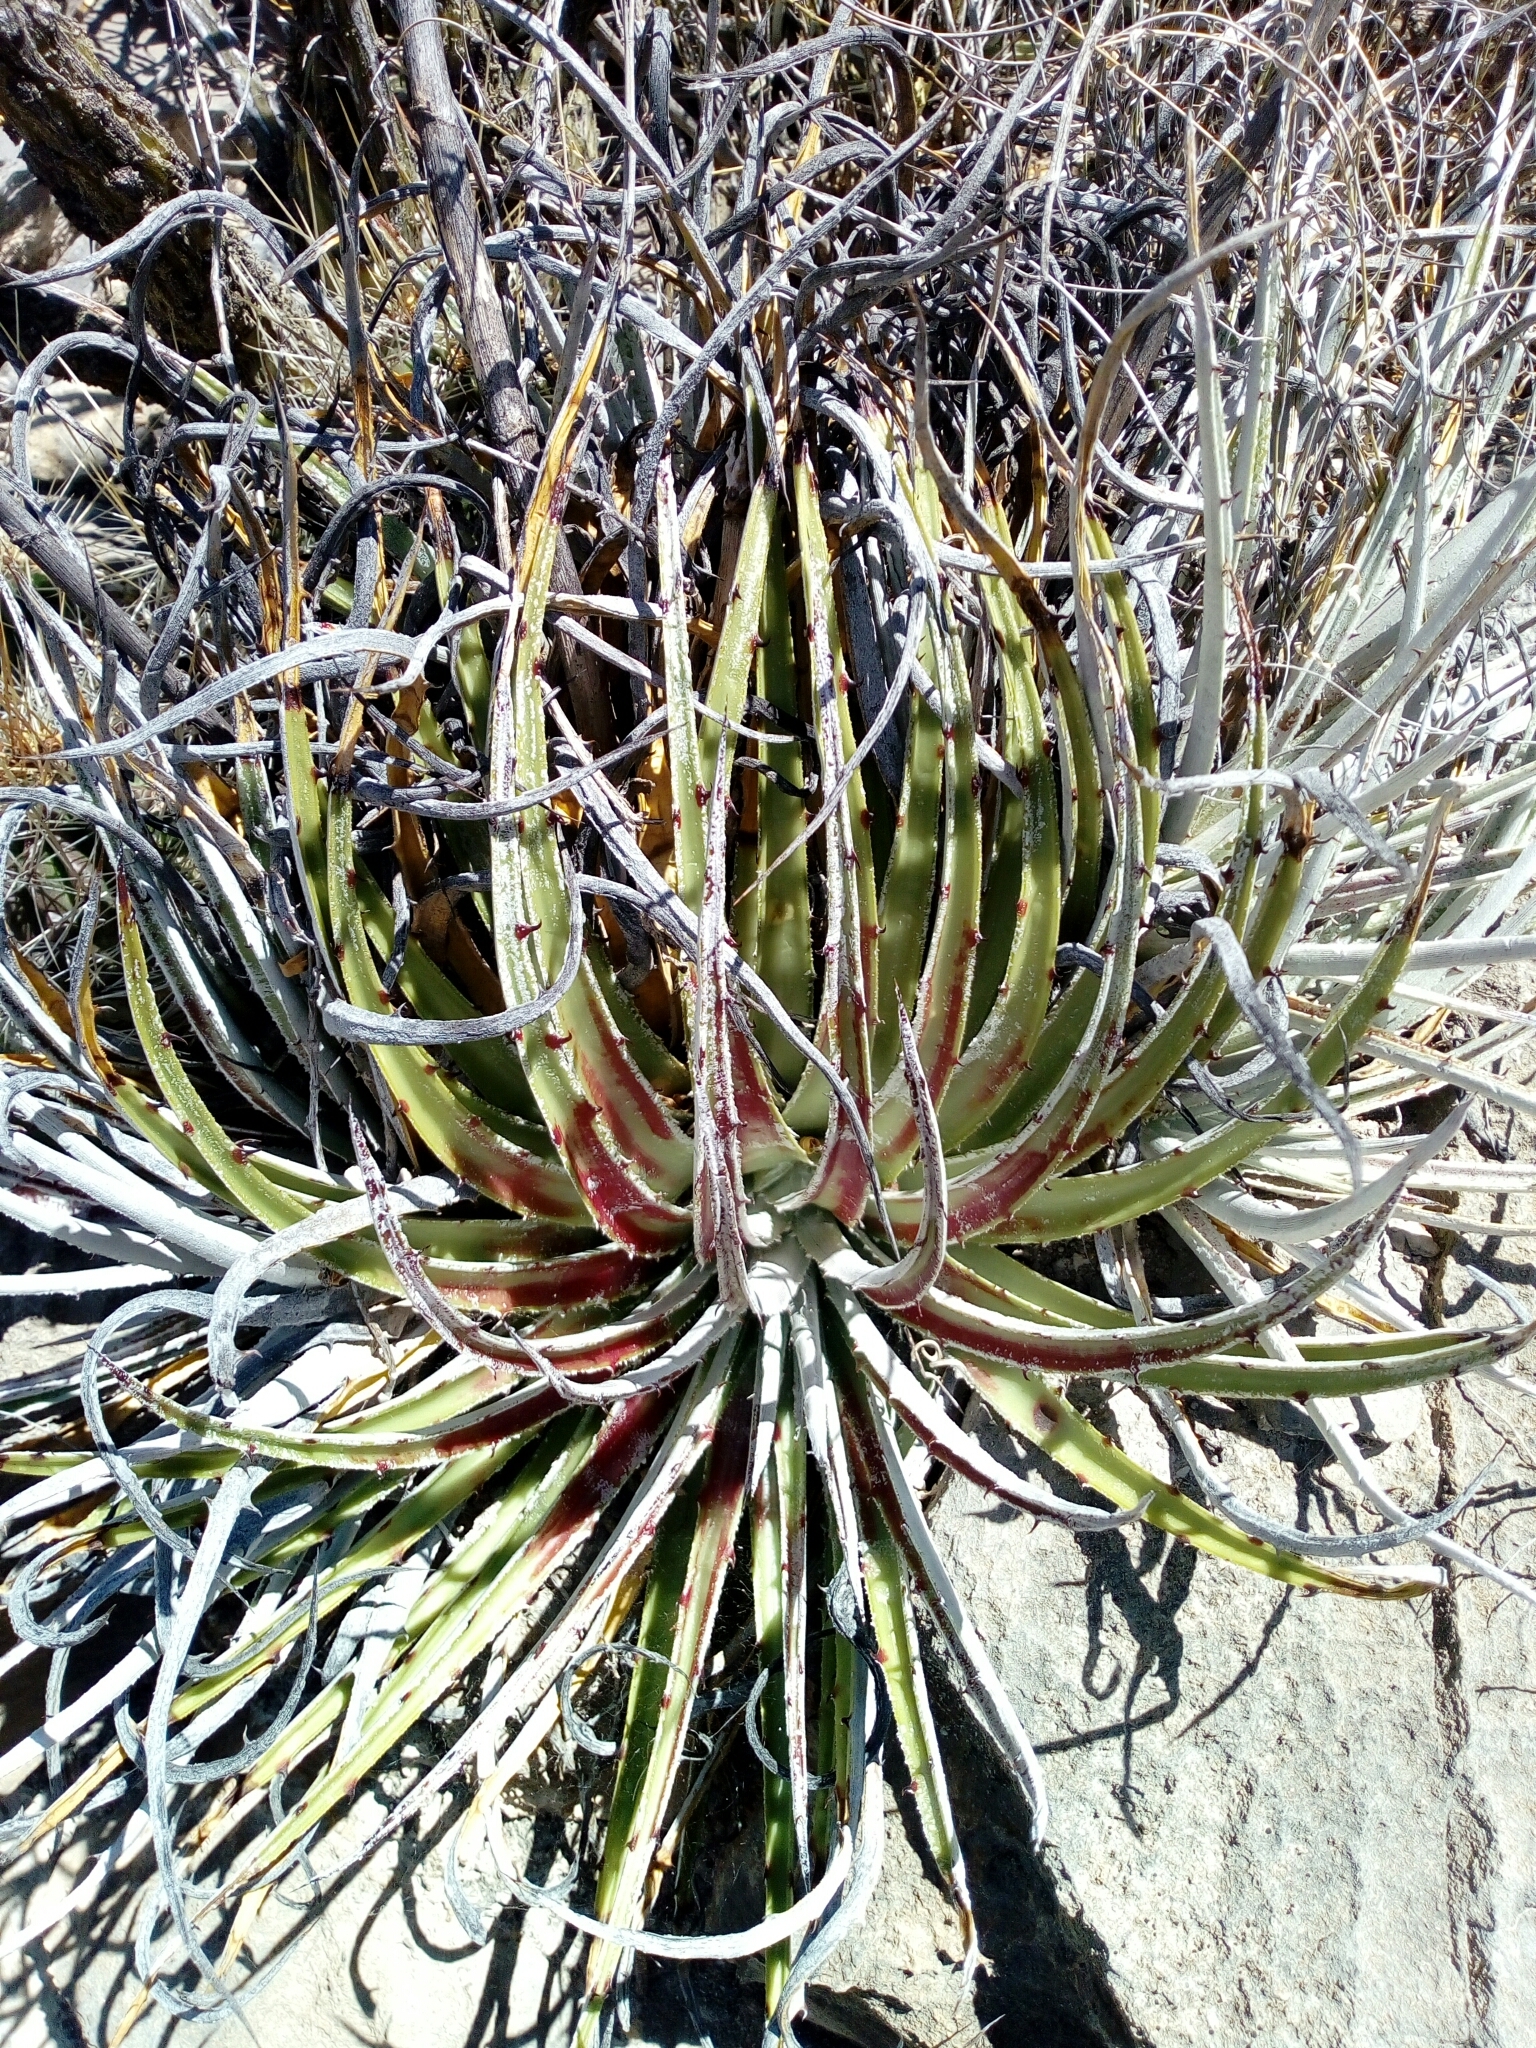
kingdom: Plantae
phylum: Tracheophyta
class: Liliopsida
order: Poales
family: Bromeliaceae
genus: Hechtia
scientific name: Hechtia texensis
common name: False agave
